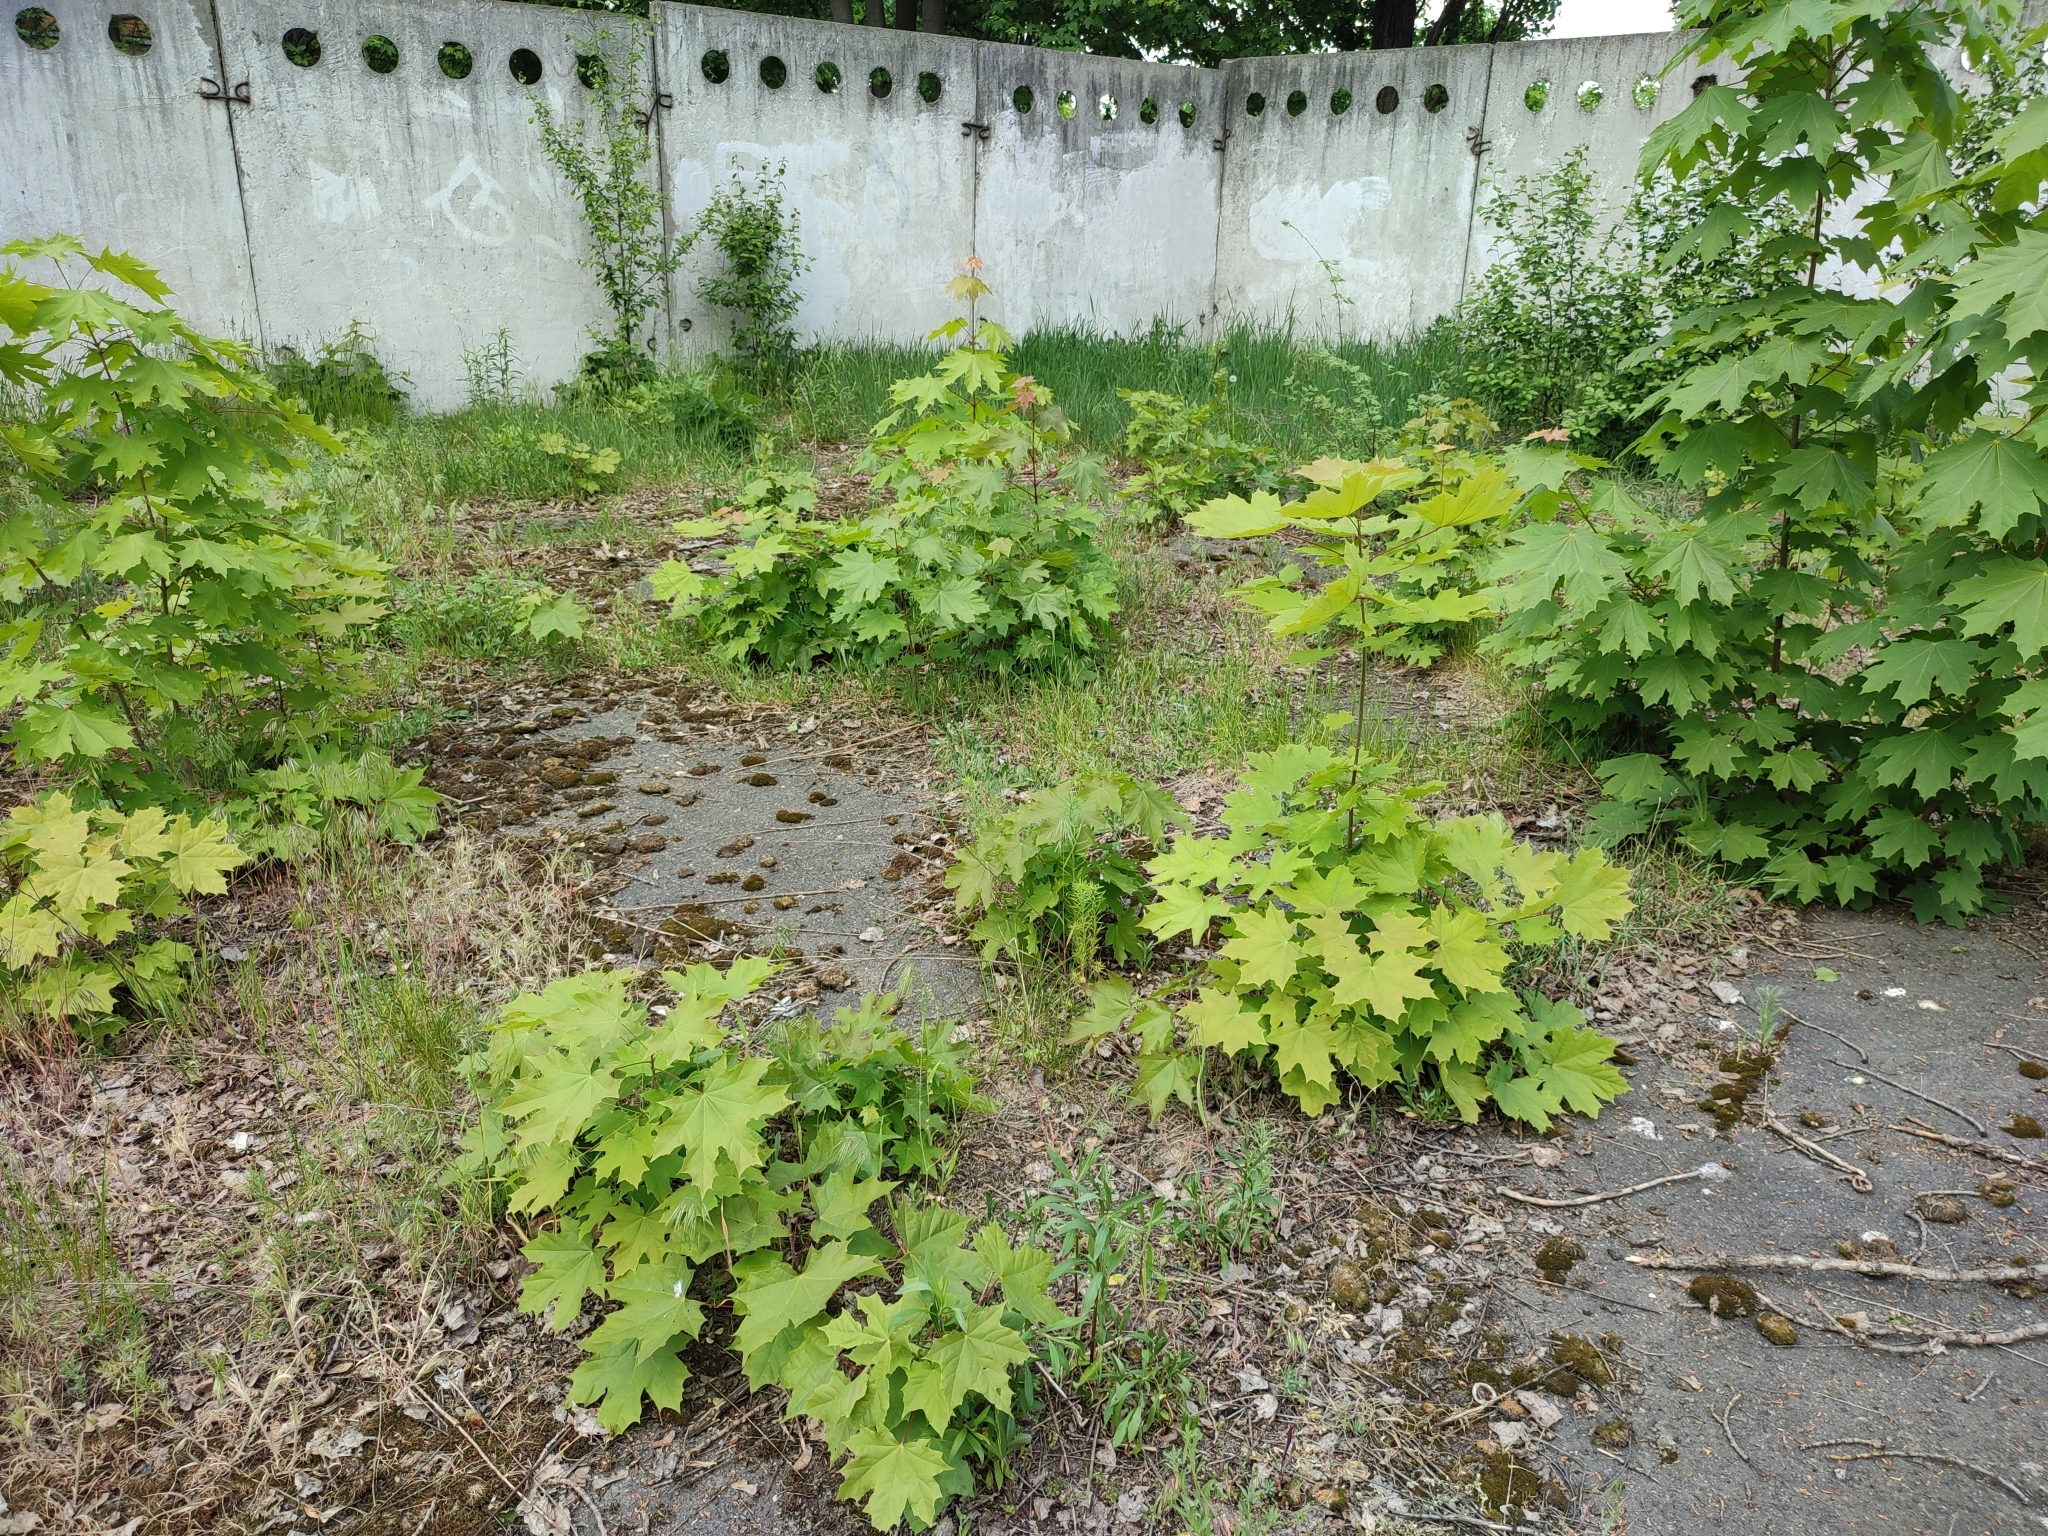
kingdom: Plantae
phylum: Tracheophyta
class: Magnoliopsida
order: Sapindales
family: Sapindaceae
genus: Acer
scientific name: Acer platanoides
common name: Norway maple
